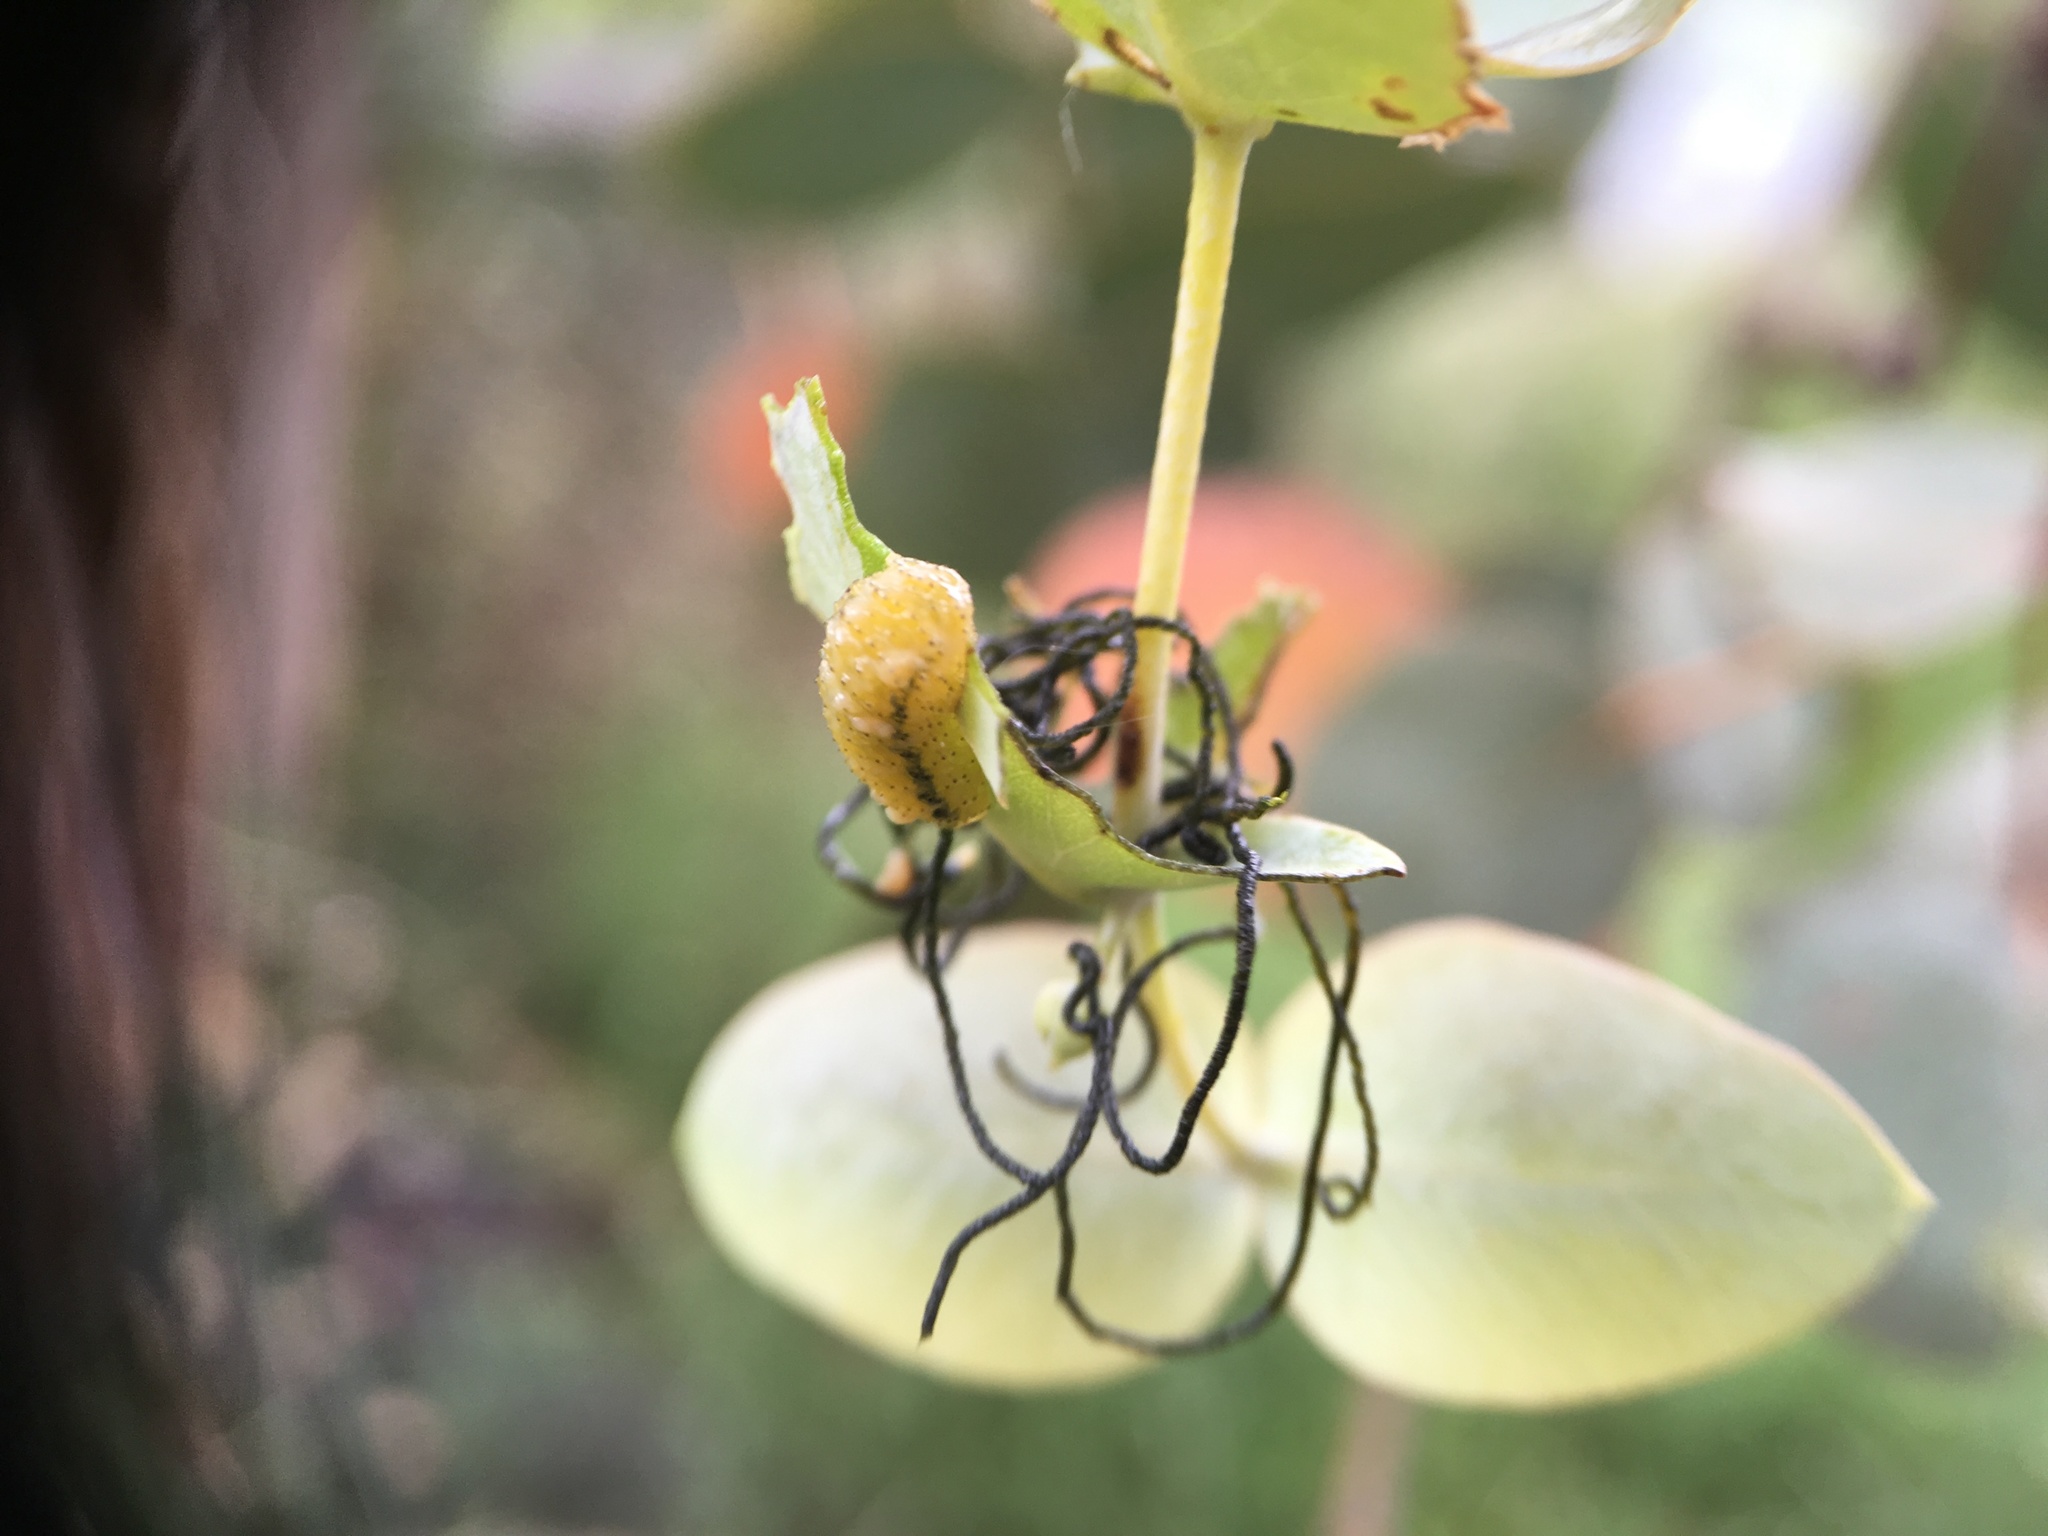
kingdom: Animalia
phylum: Arthropoda
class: Insecta
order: Coleoptera
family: Curculionidae
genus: Gonipterus
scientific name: Gonipterus platensis
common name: Eucalyptus snout beetle
